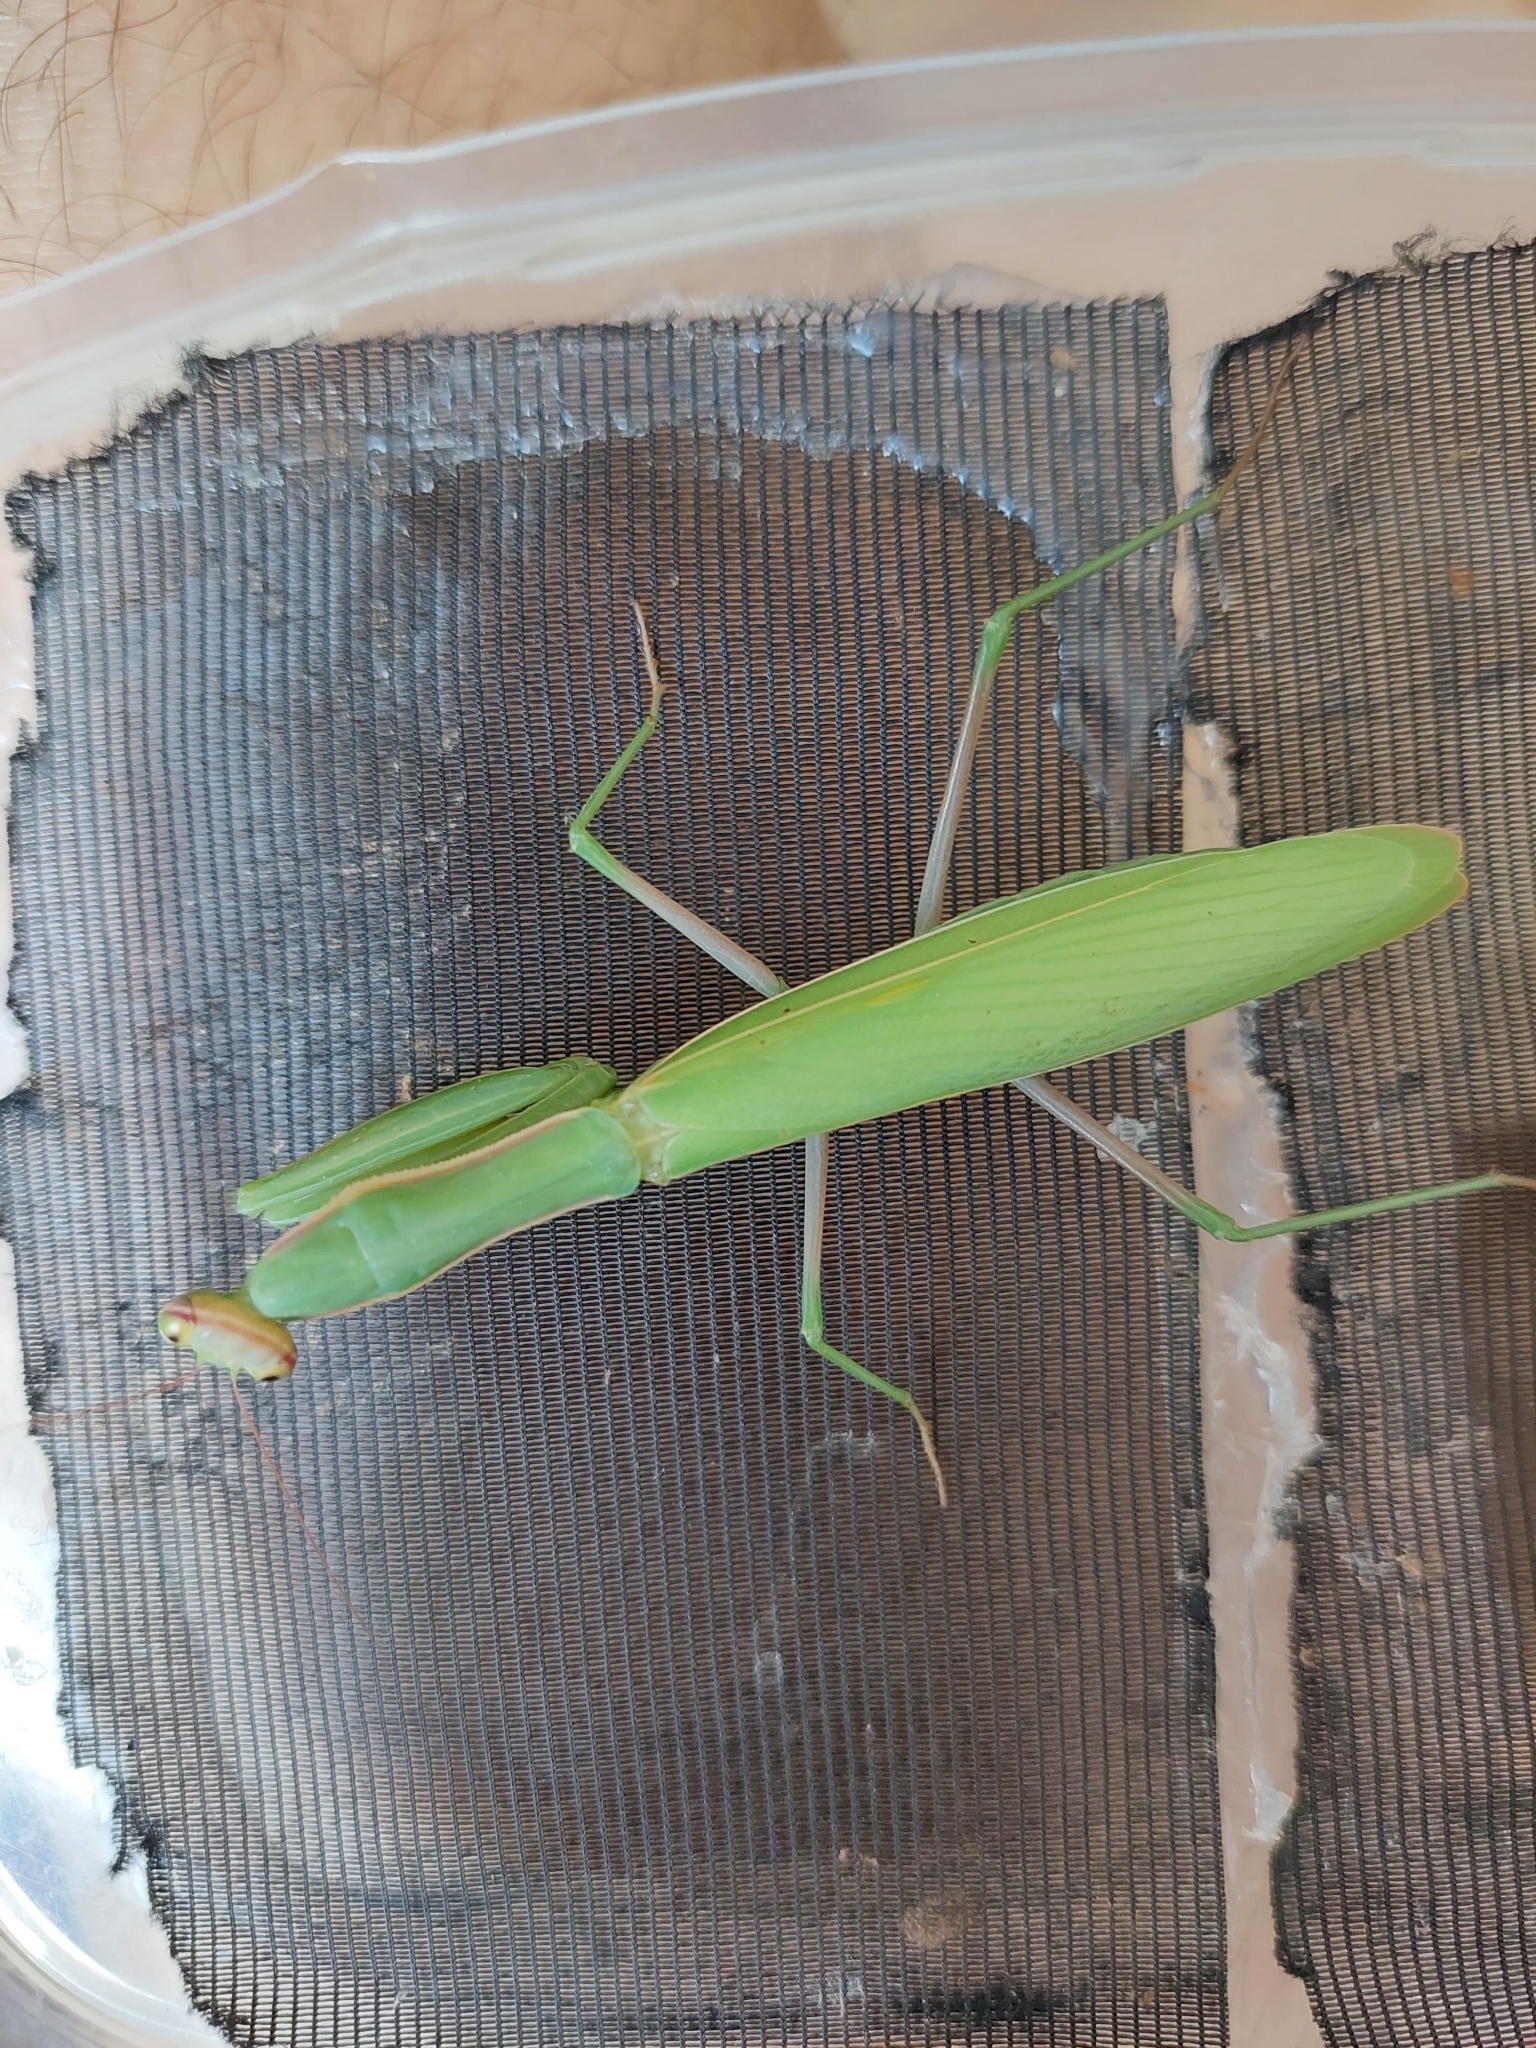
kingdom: Animalia
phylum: Arthropoda
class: Insecta
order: Mantodea
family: Mantidae
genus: Mantis
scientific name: Mantis religiosa
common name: Praying mantis
